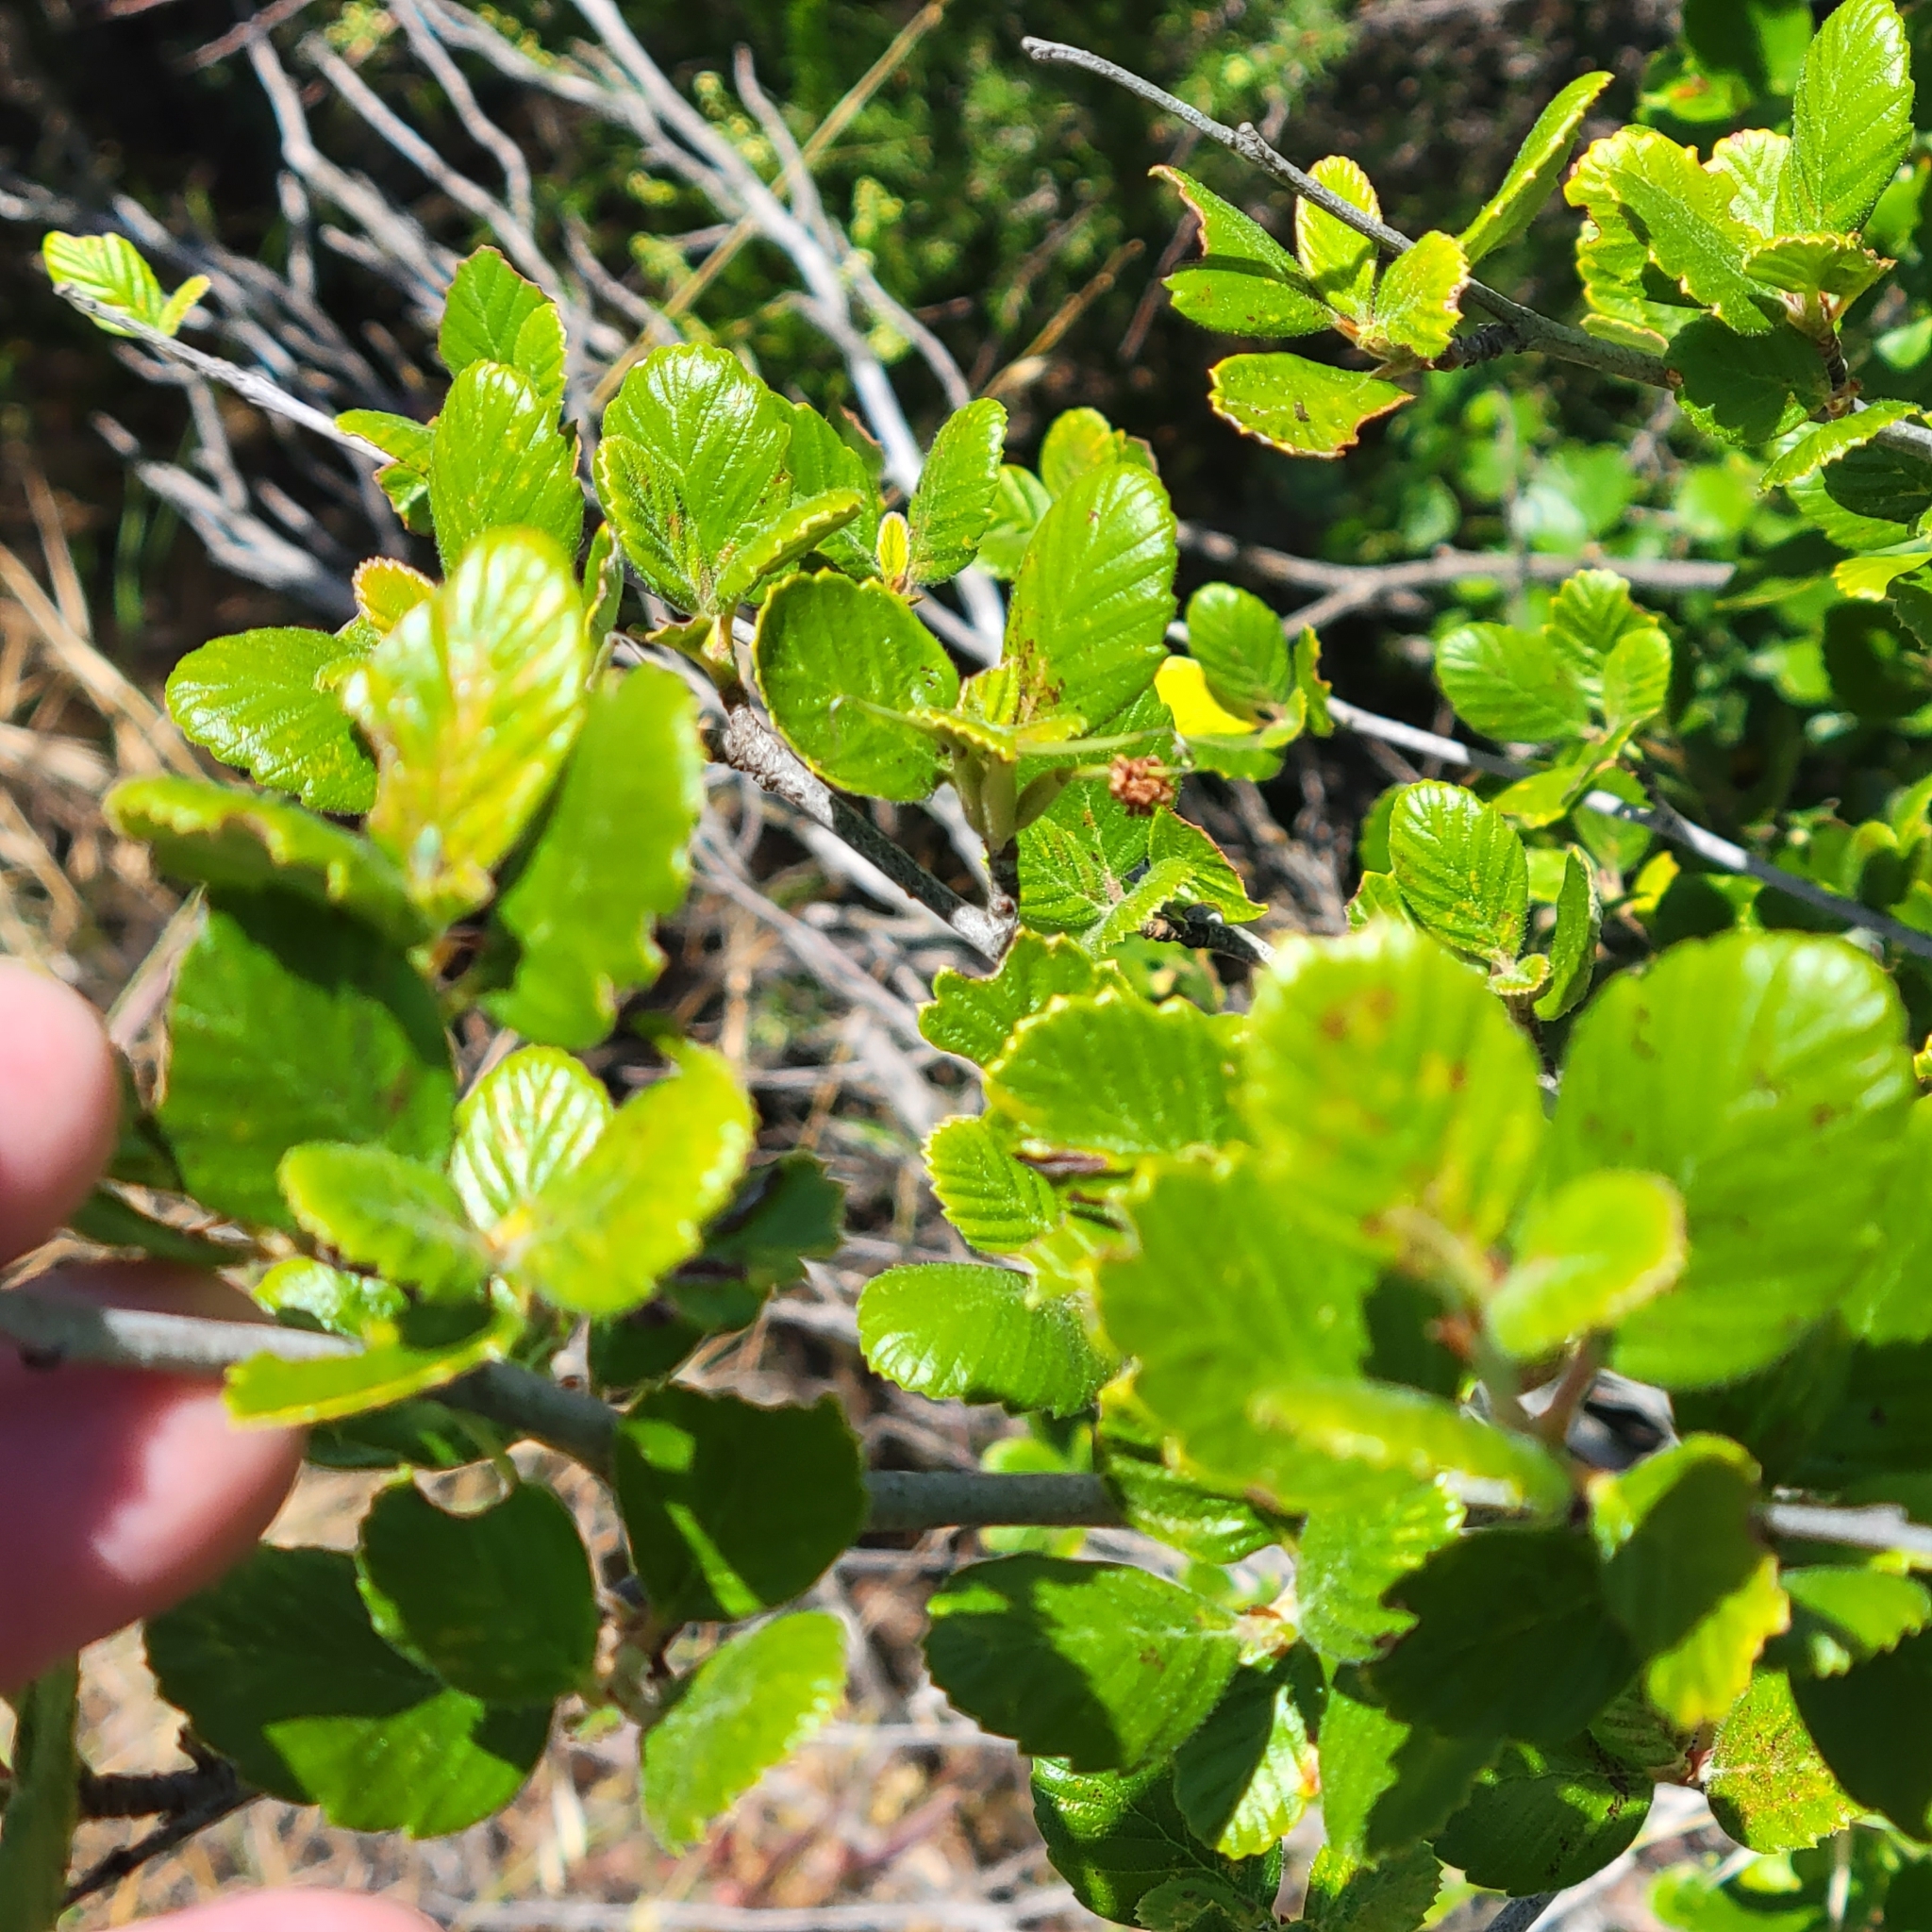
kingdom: Plantae
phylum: Tracheophyta
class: Magnoliopsida
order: Rosales
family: Rosaceae
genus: Cercocarpus
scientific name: Cercocarpus betuloides
